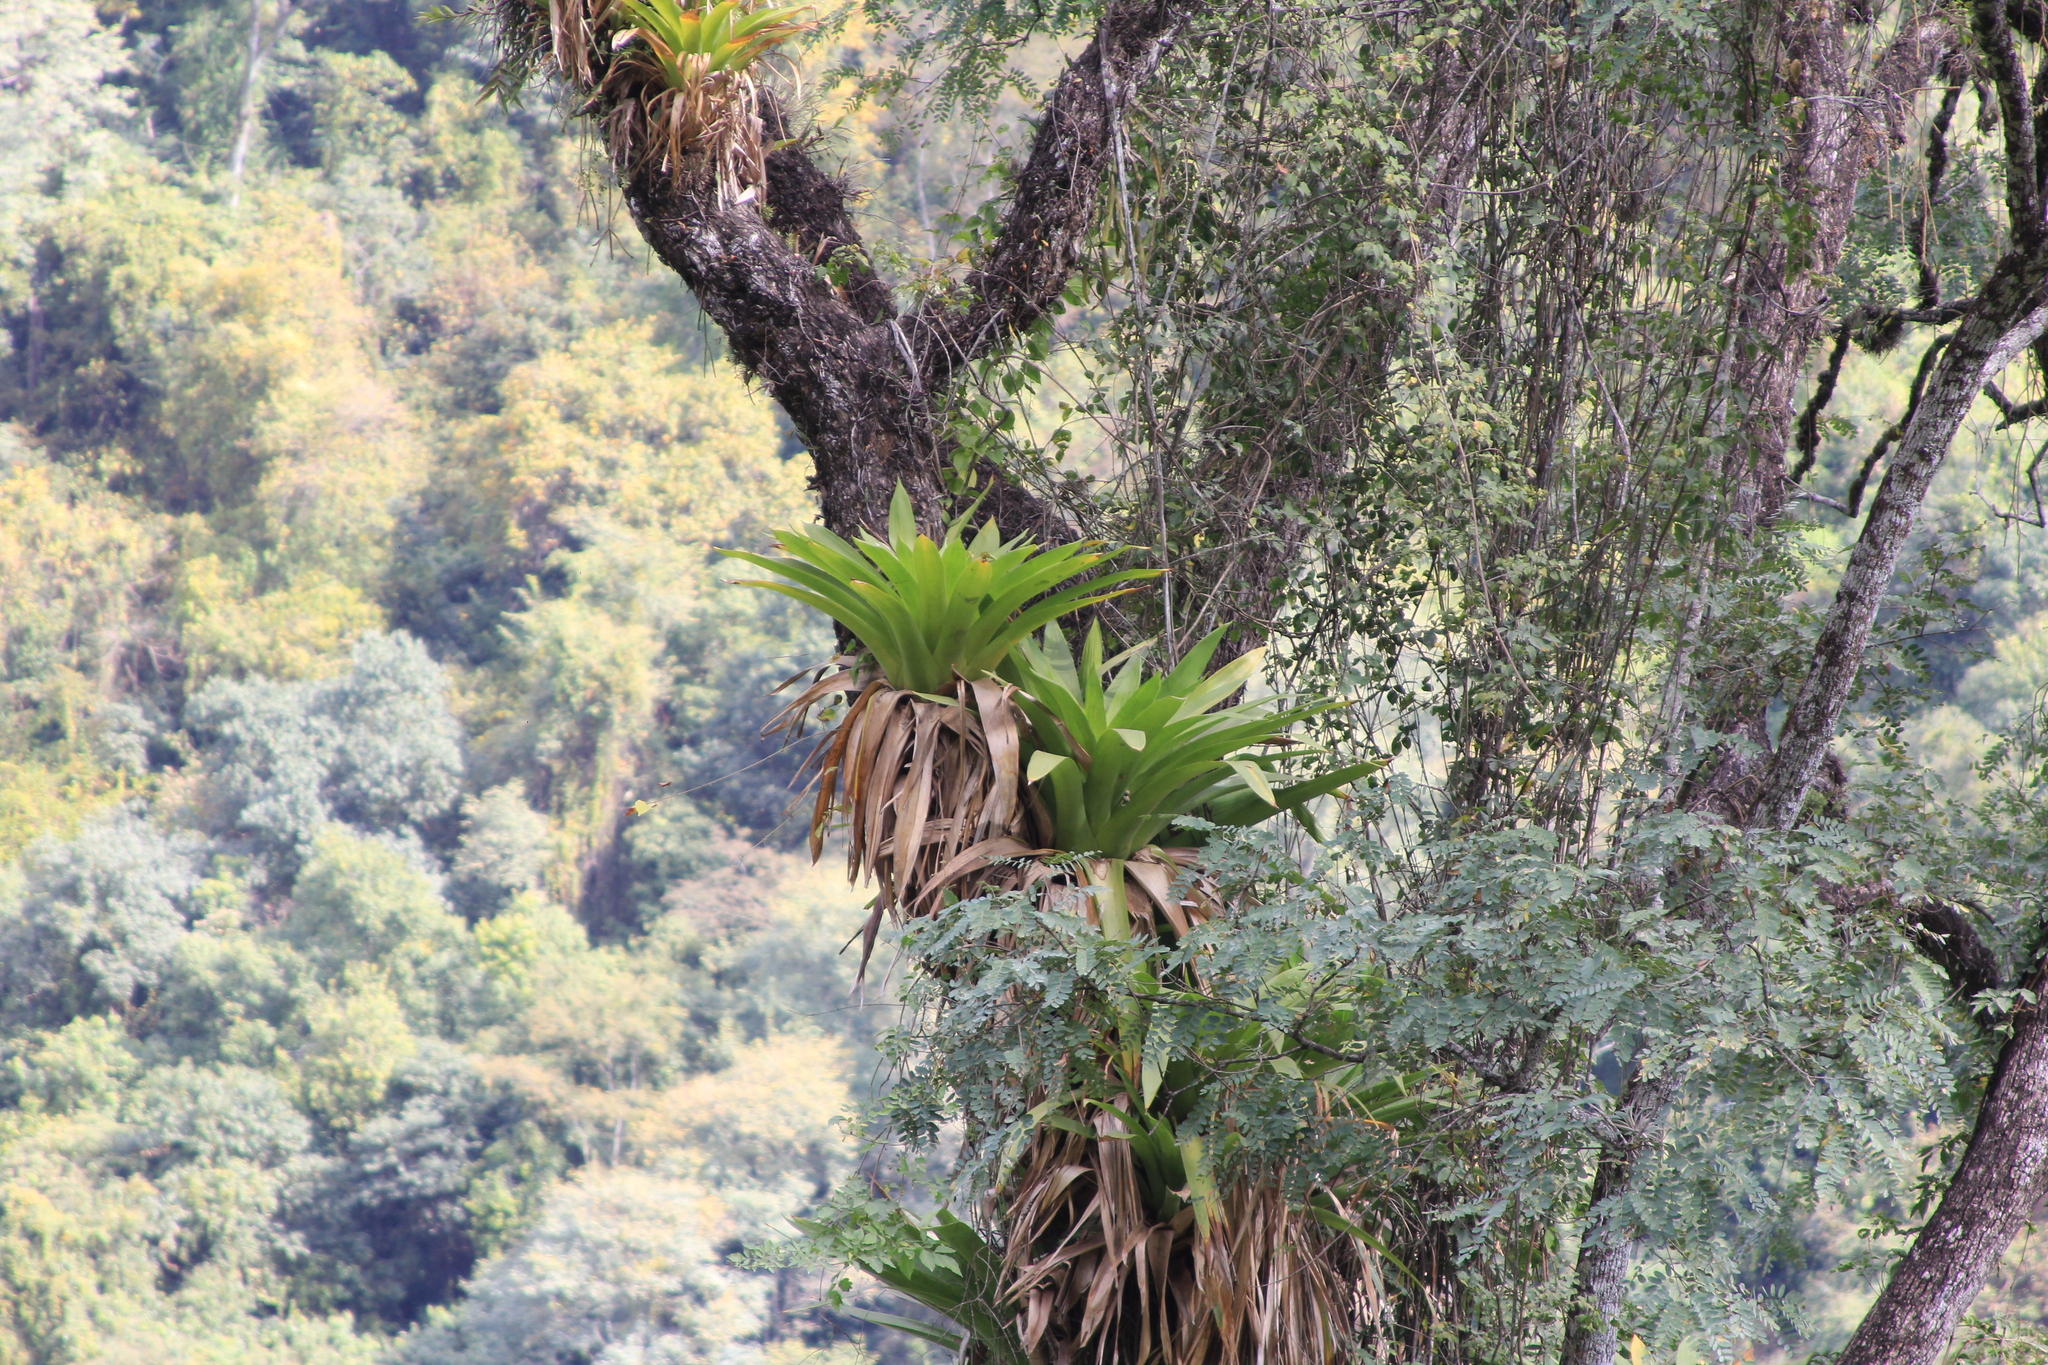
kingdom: Plantae
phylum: Tracheophyta
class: Liliopsida
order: Poales
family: Bromeliaceae
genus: Tillandsia
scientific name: Tillandsia australis
